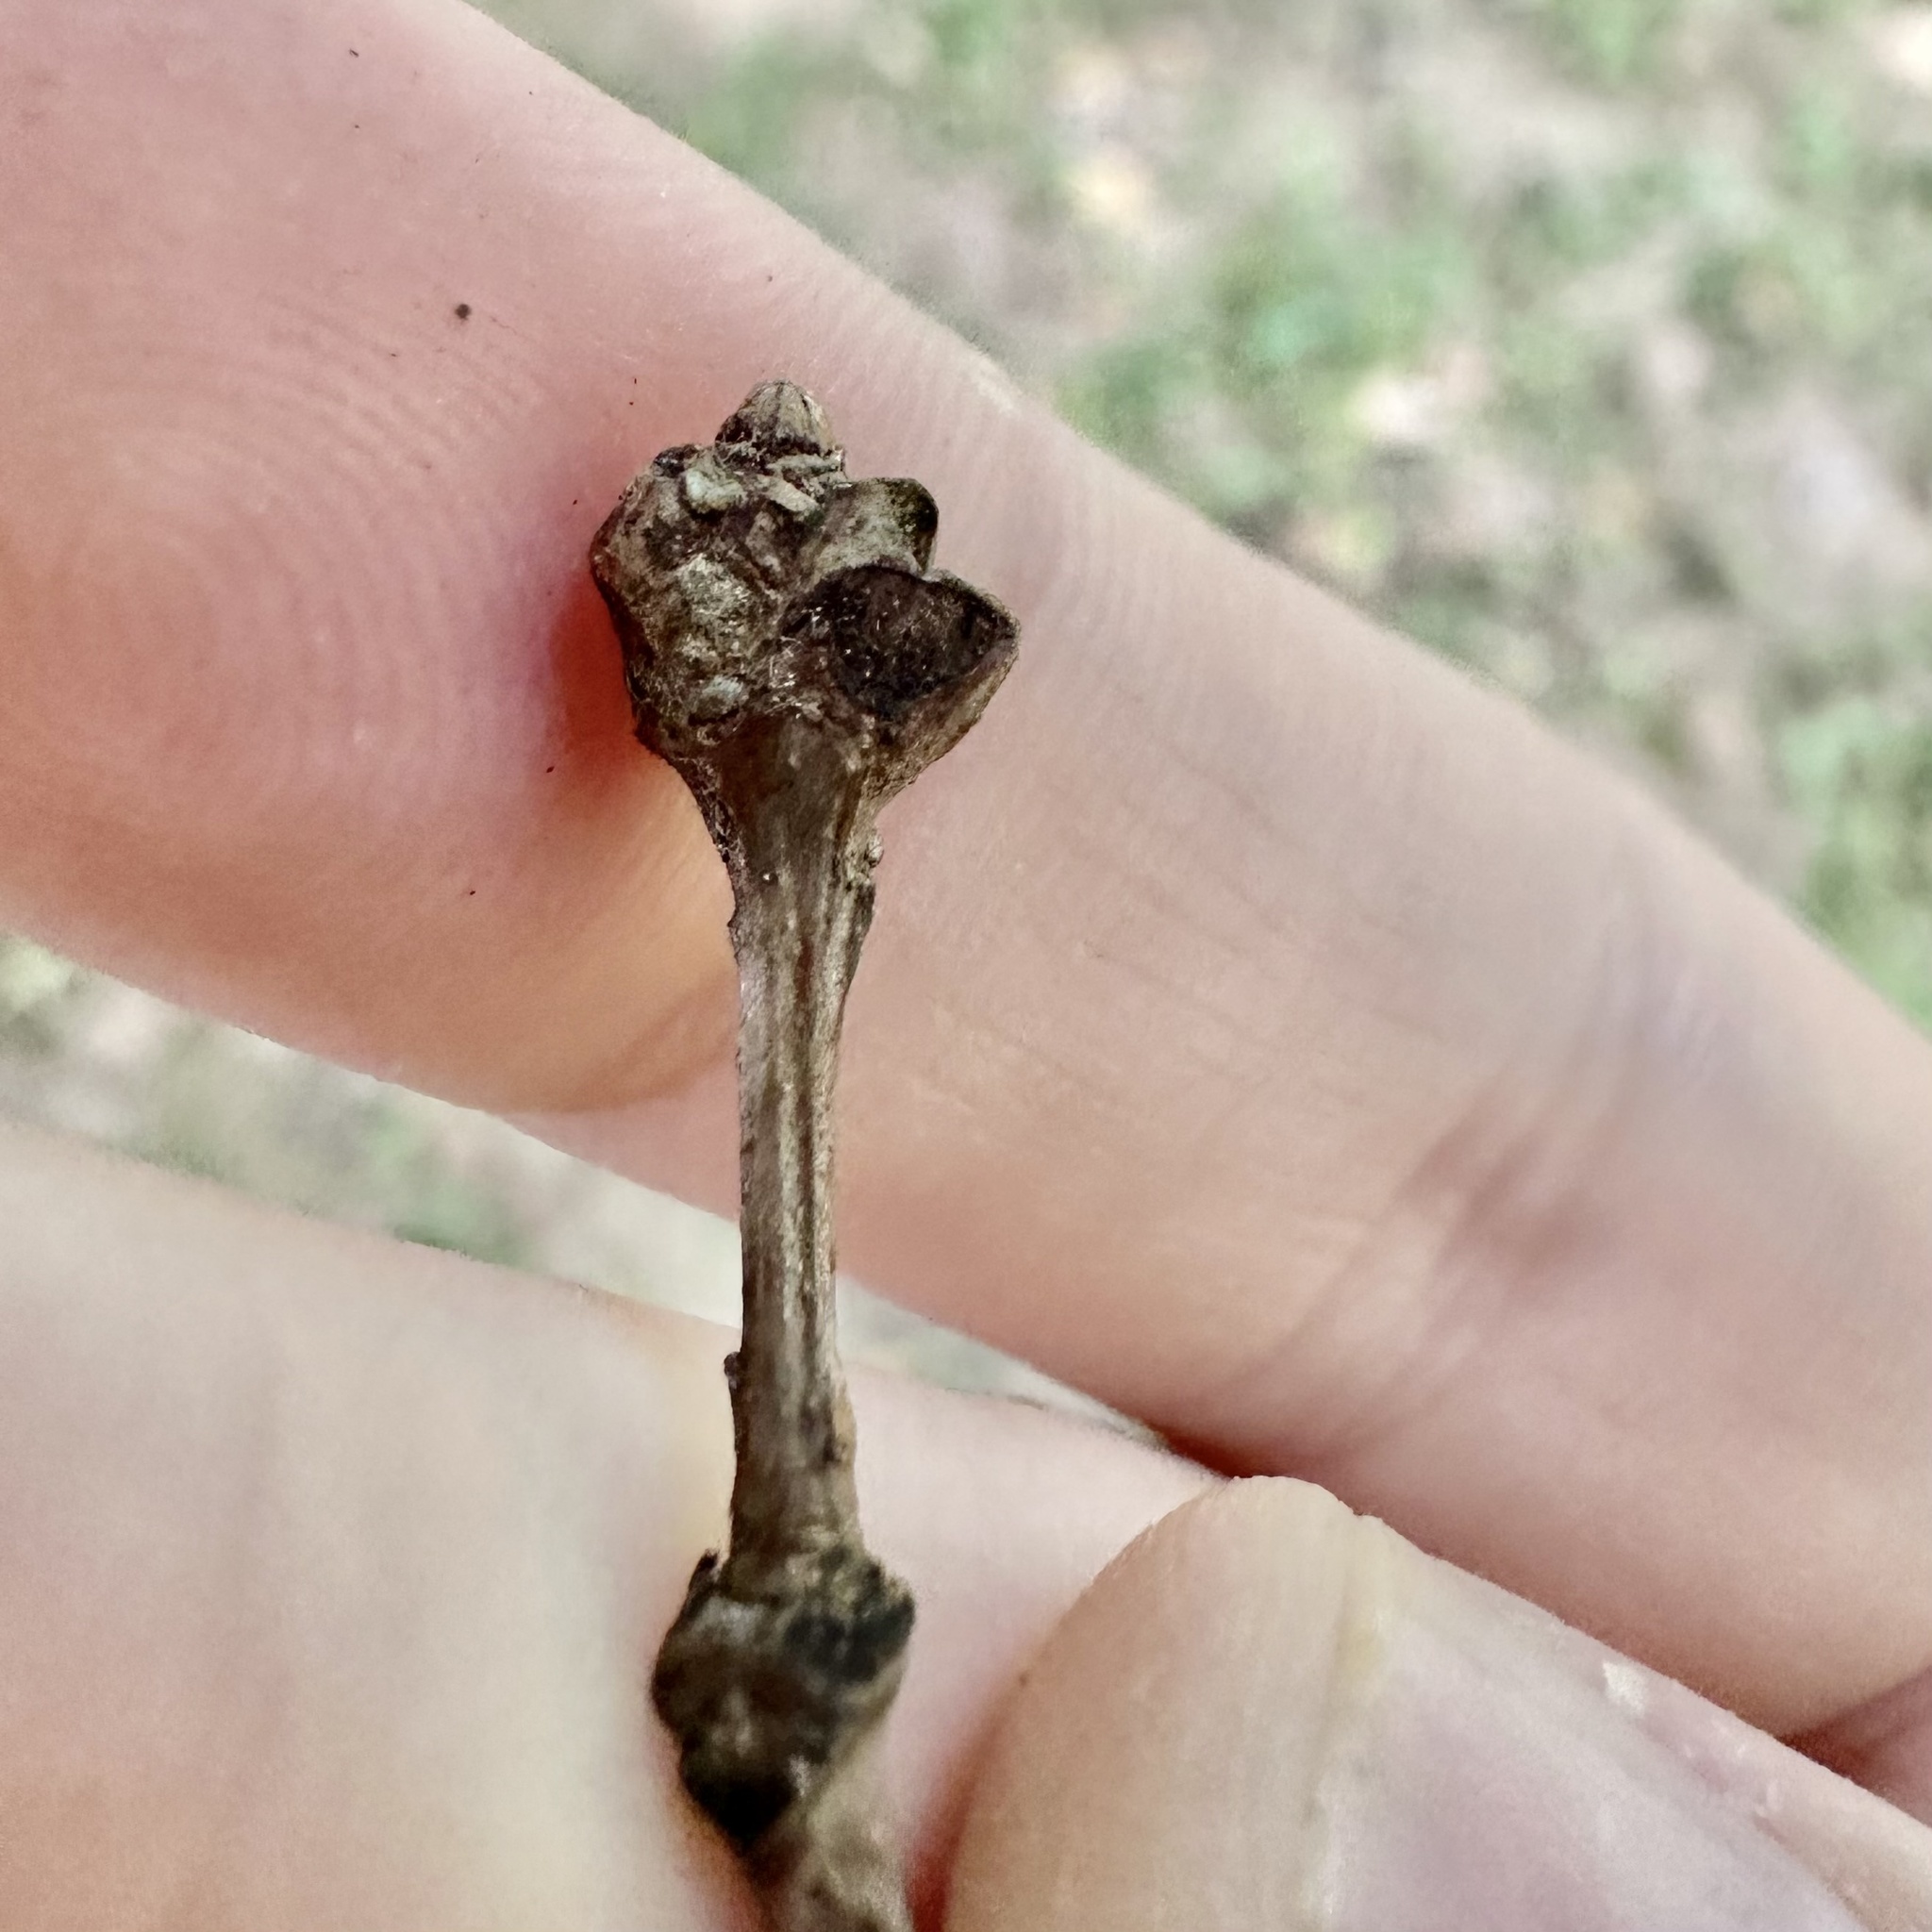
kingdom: Animalia
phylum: Arthropoda
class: Insecta
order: Hymenoptera
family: Cynipidae
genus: Callirhytis
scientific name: Callirhytis clavula
